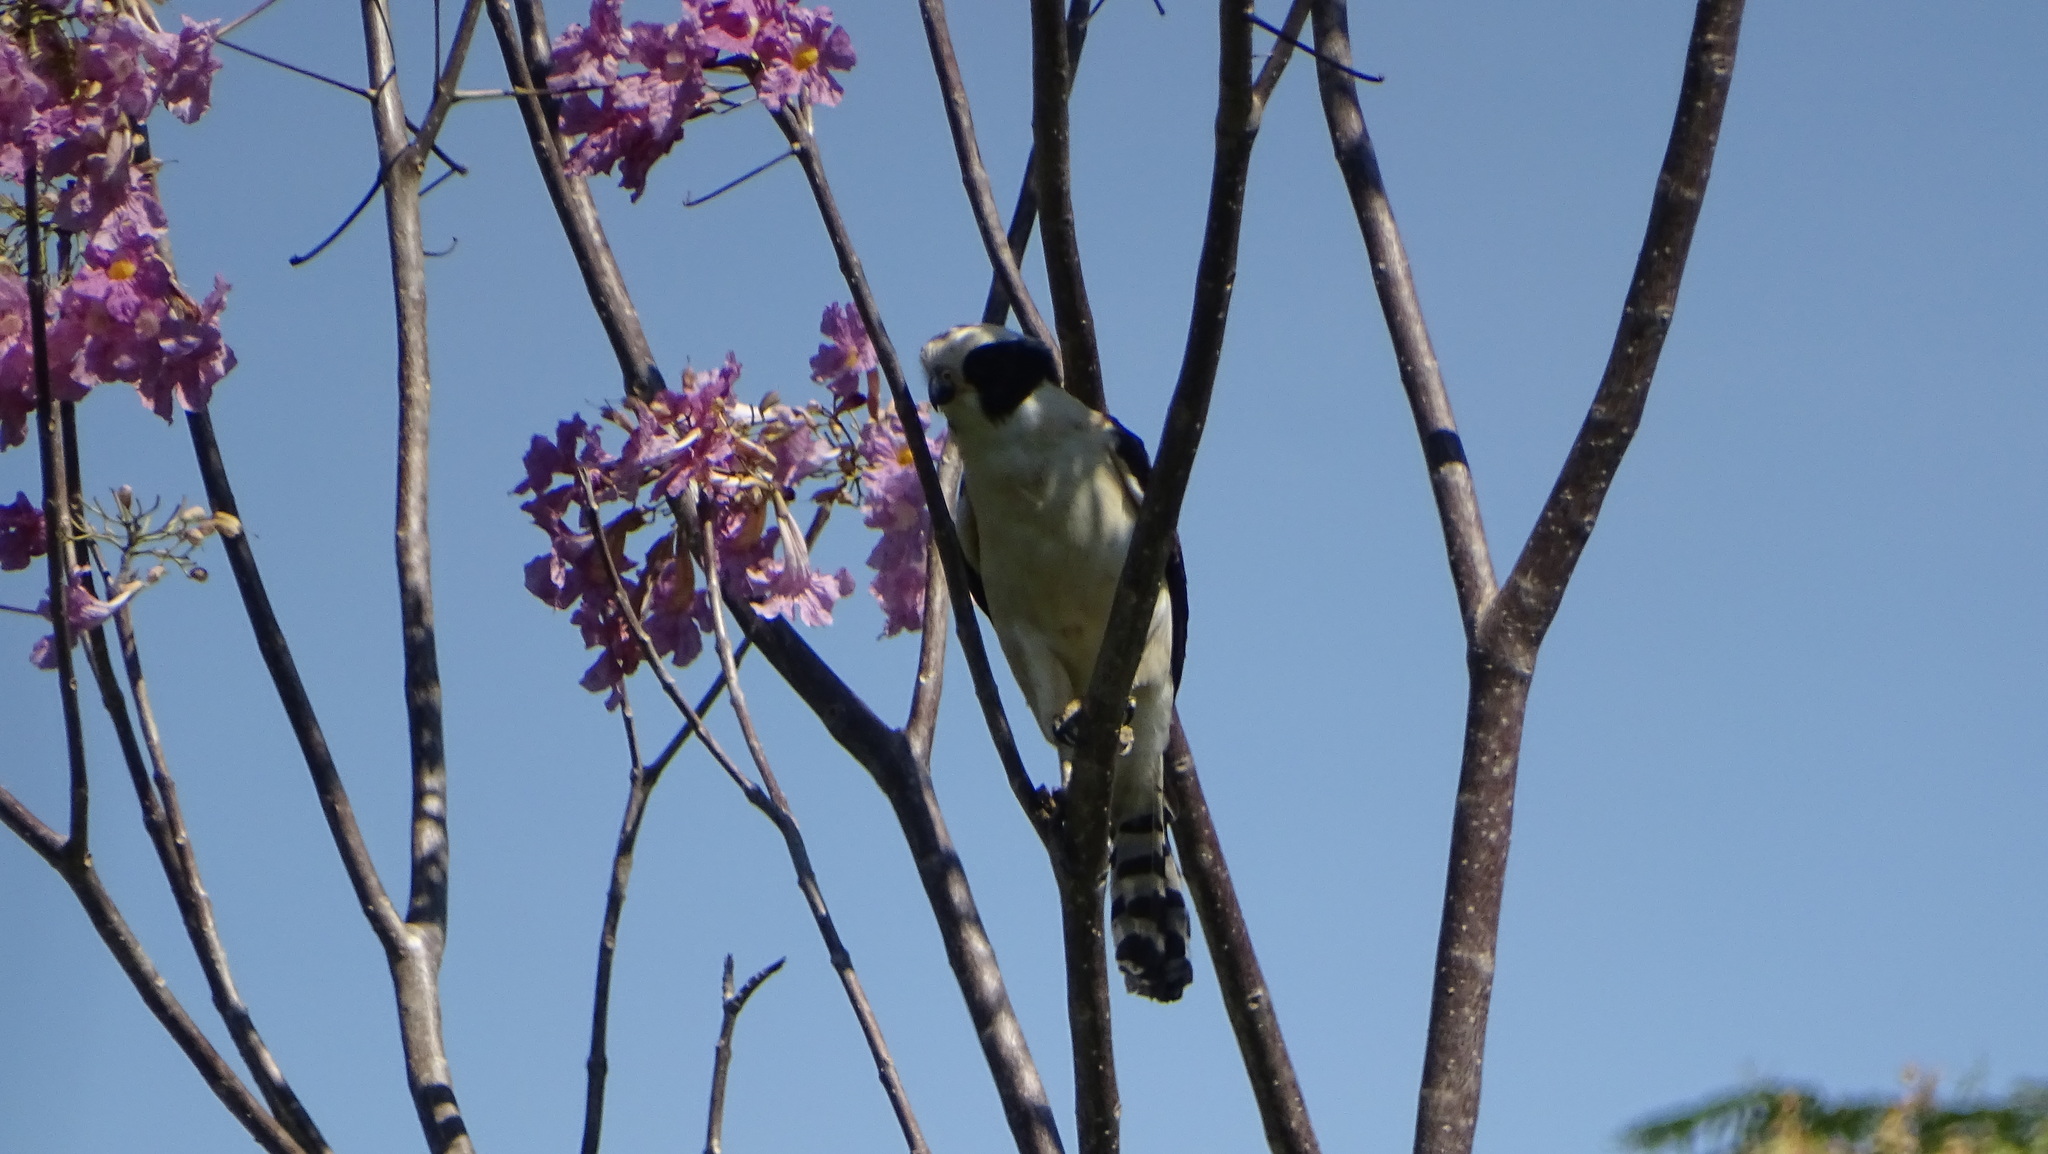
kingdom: Animalia
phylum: Chordata
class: Aves
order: Falconiformes
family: Falconidae
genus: Herpetotheres
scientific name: Herpetotheres cachinnans
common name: Laughing falcon
